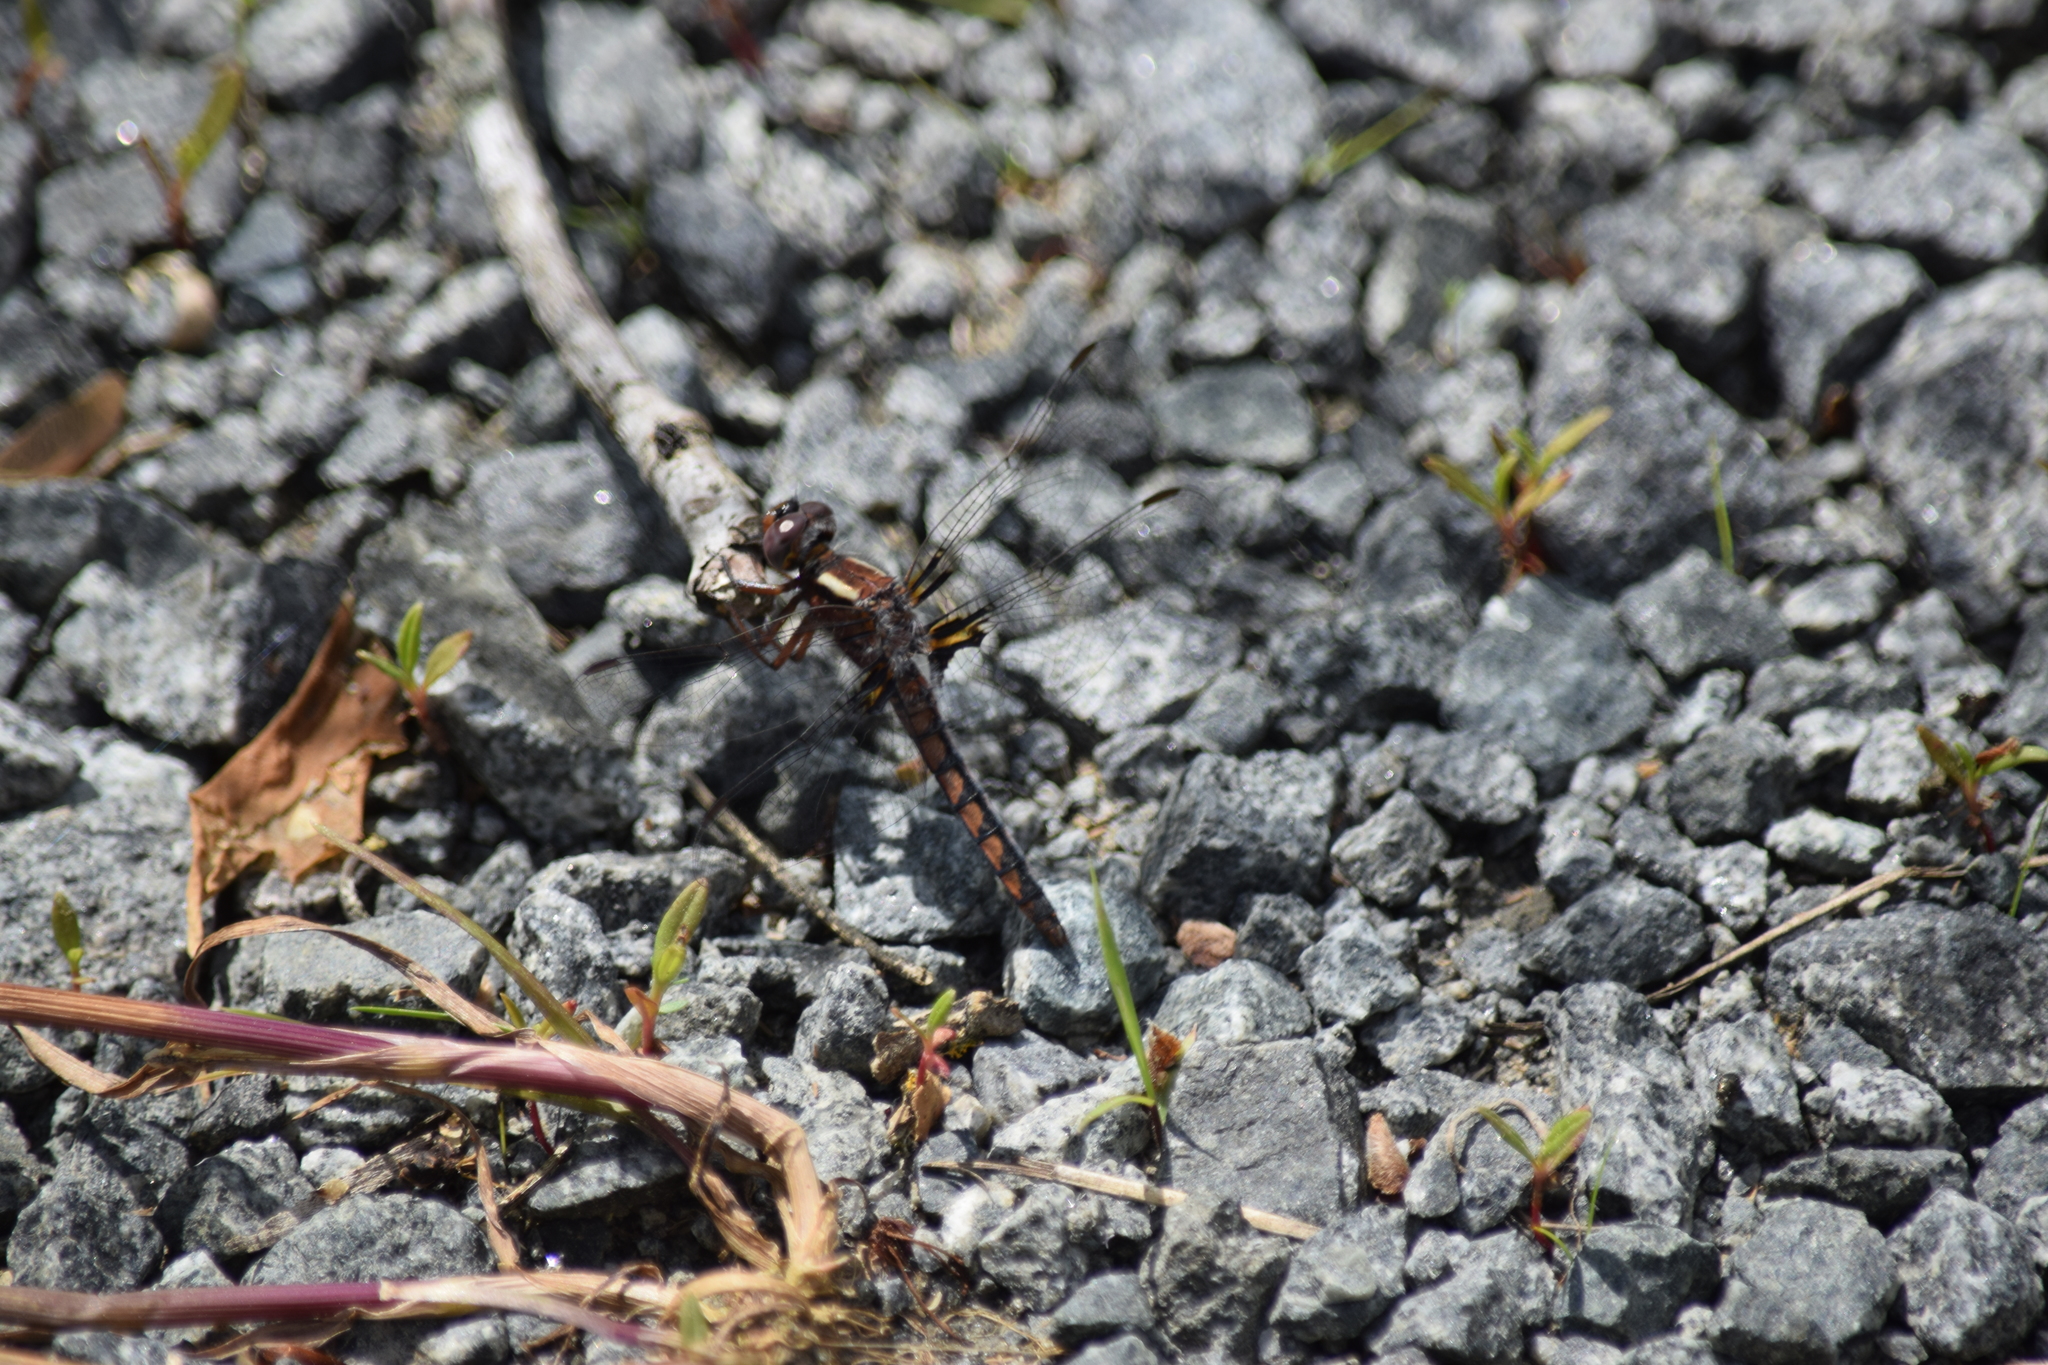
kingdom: Animalia
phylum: Arthropoda
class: Insecta
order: Odonata
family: Libellulidae
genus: Ladona
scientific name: Ladona deplanata
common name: Blue corporal
